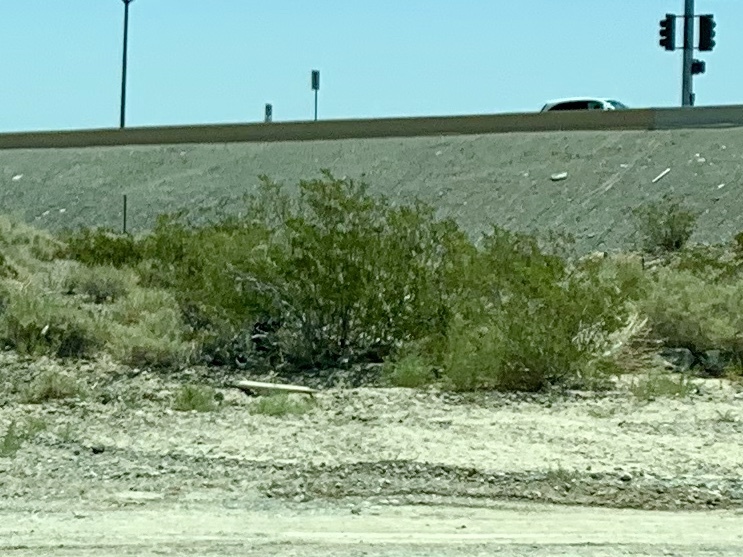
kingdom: Plantae
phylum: Tracheophyta
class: Magnoliopsida
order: Zygophyllales
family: Zygophyllaceae
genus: Larrea
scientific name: Larrea tridentata
